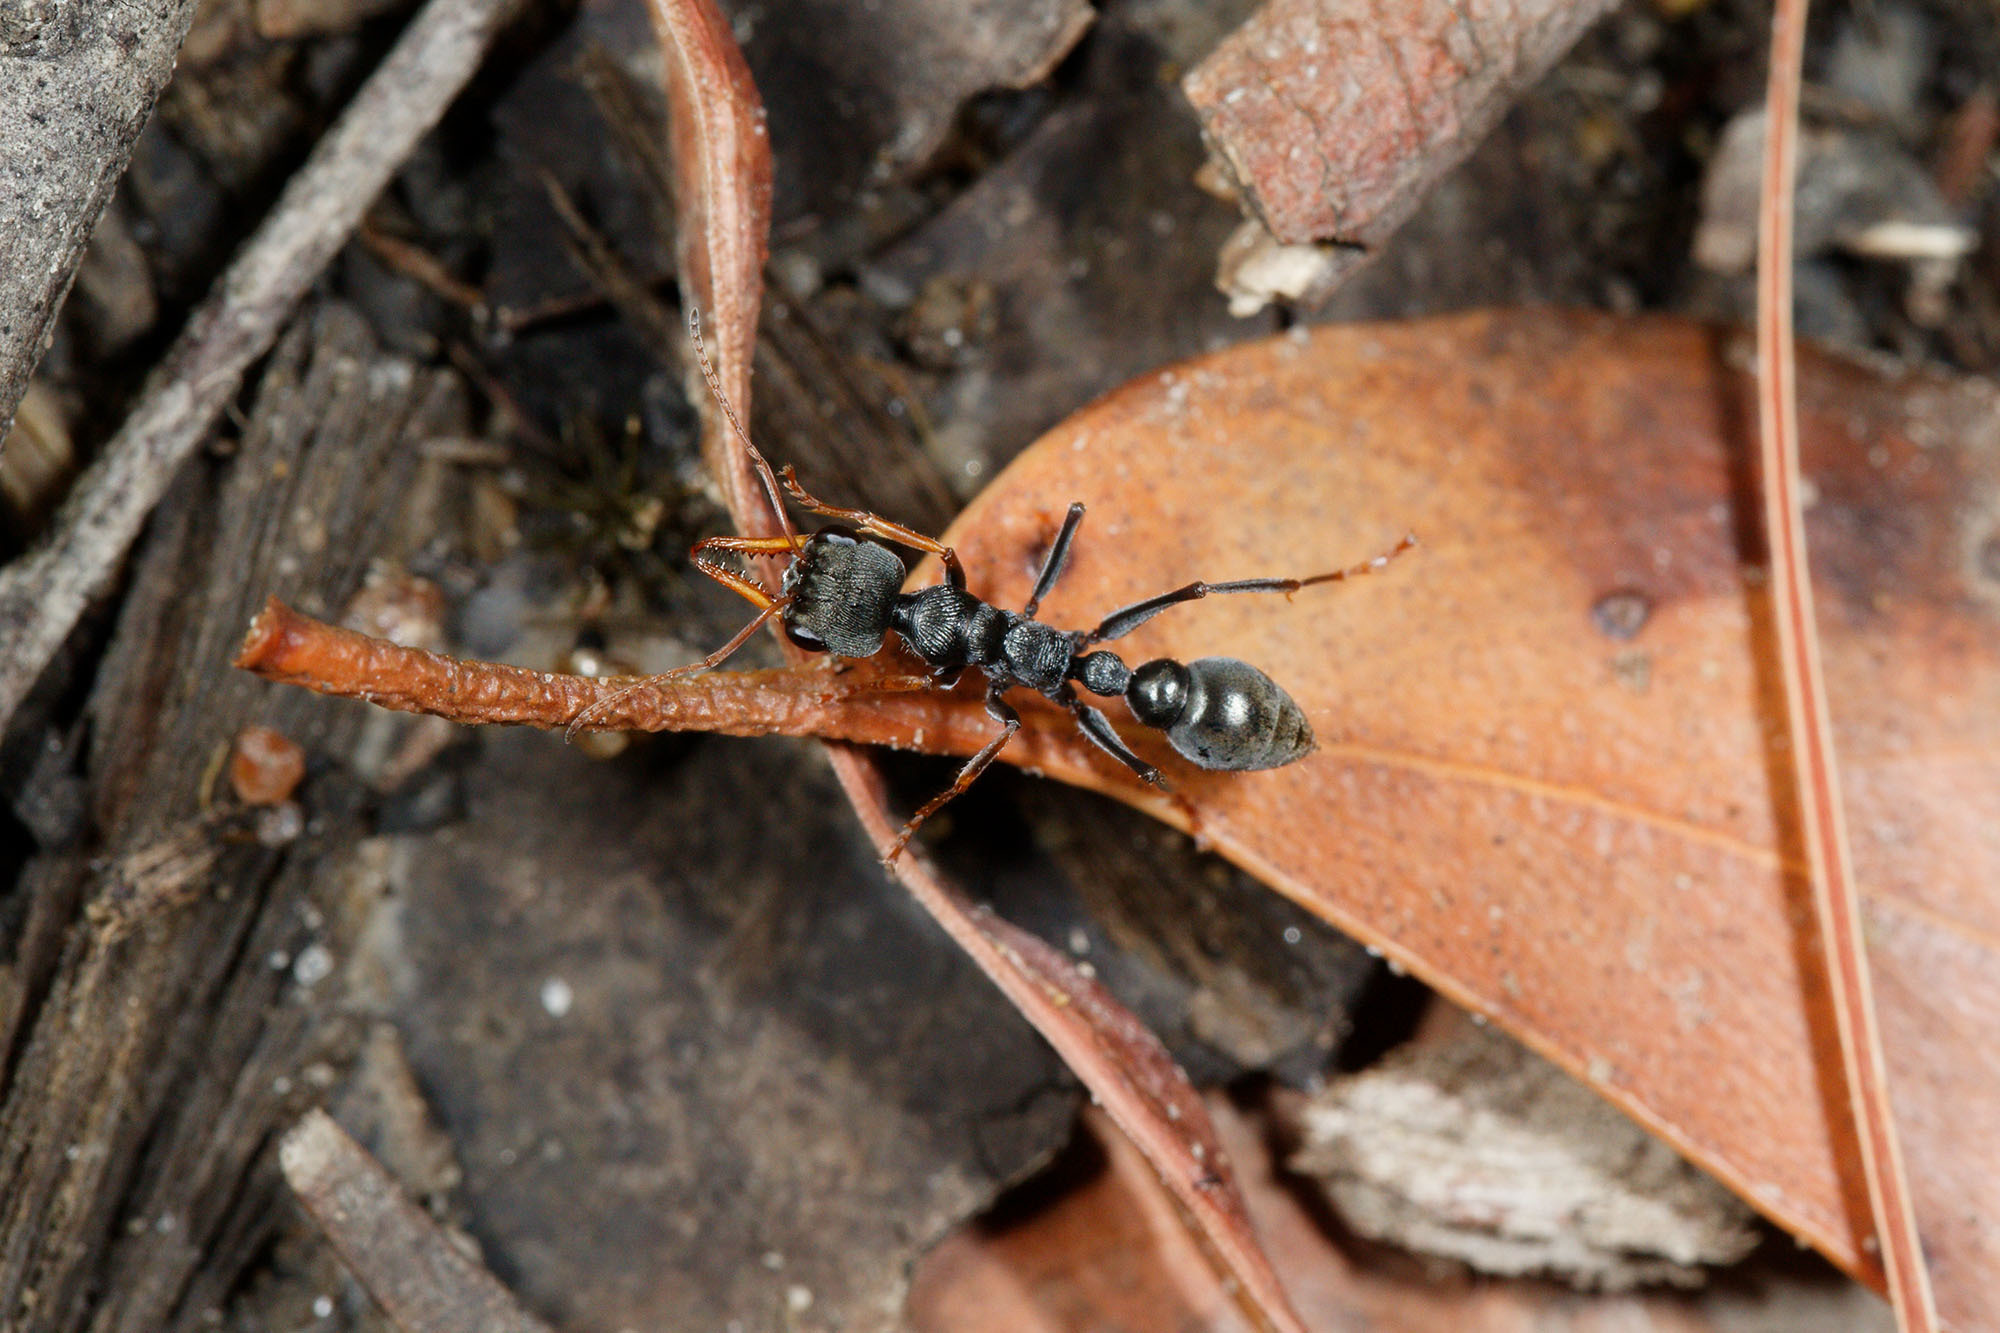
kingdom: Animalia
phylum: Arthropoda
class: Insecta
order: Hymenoptera
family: Formicidae
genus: Myrmecia
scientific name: Myrmecia pilosula
